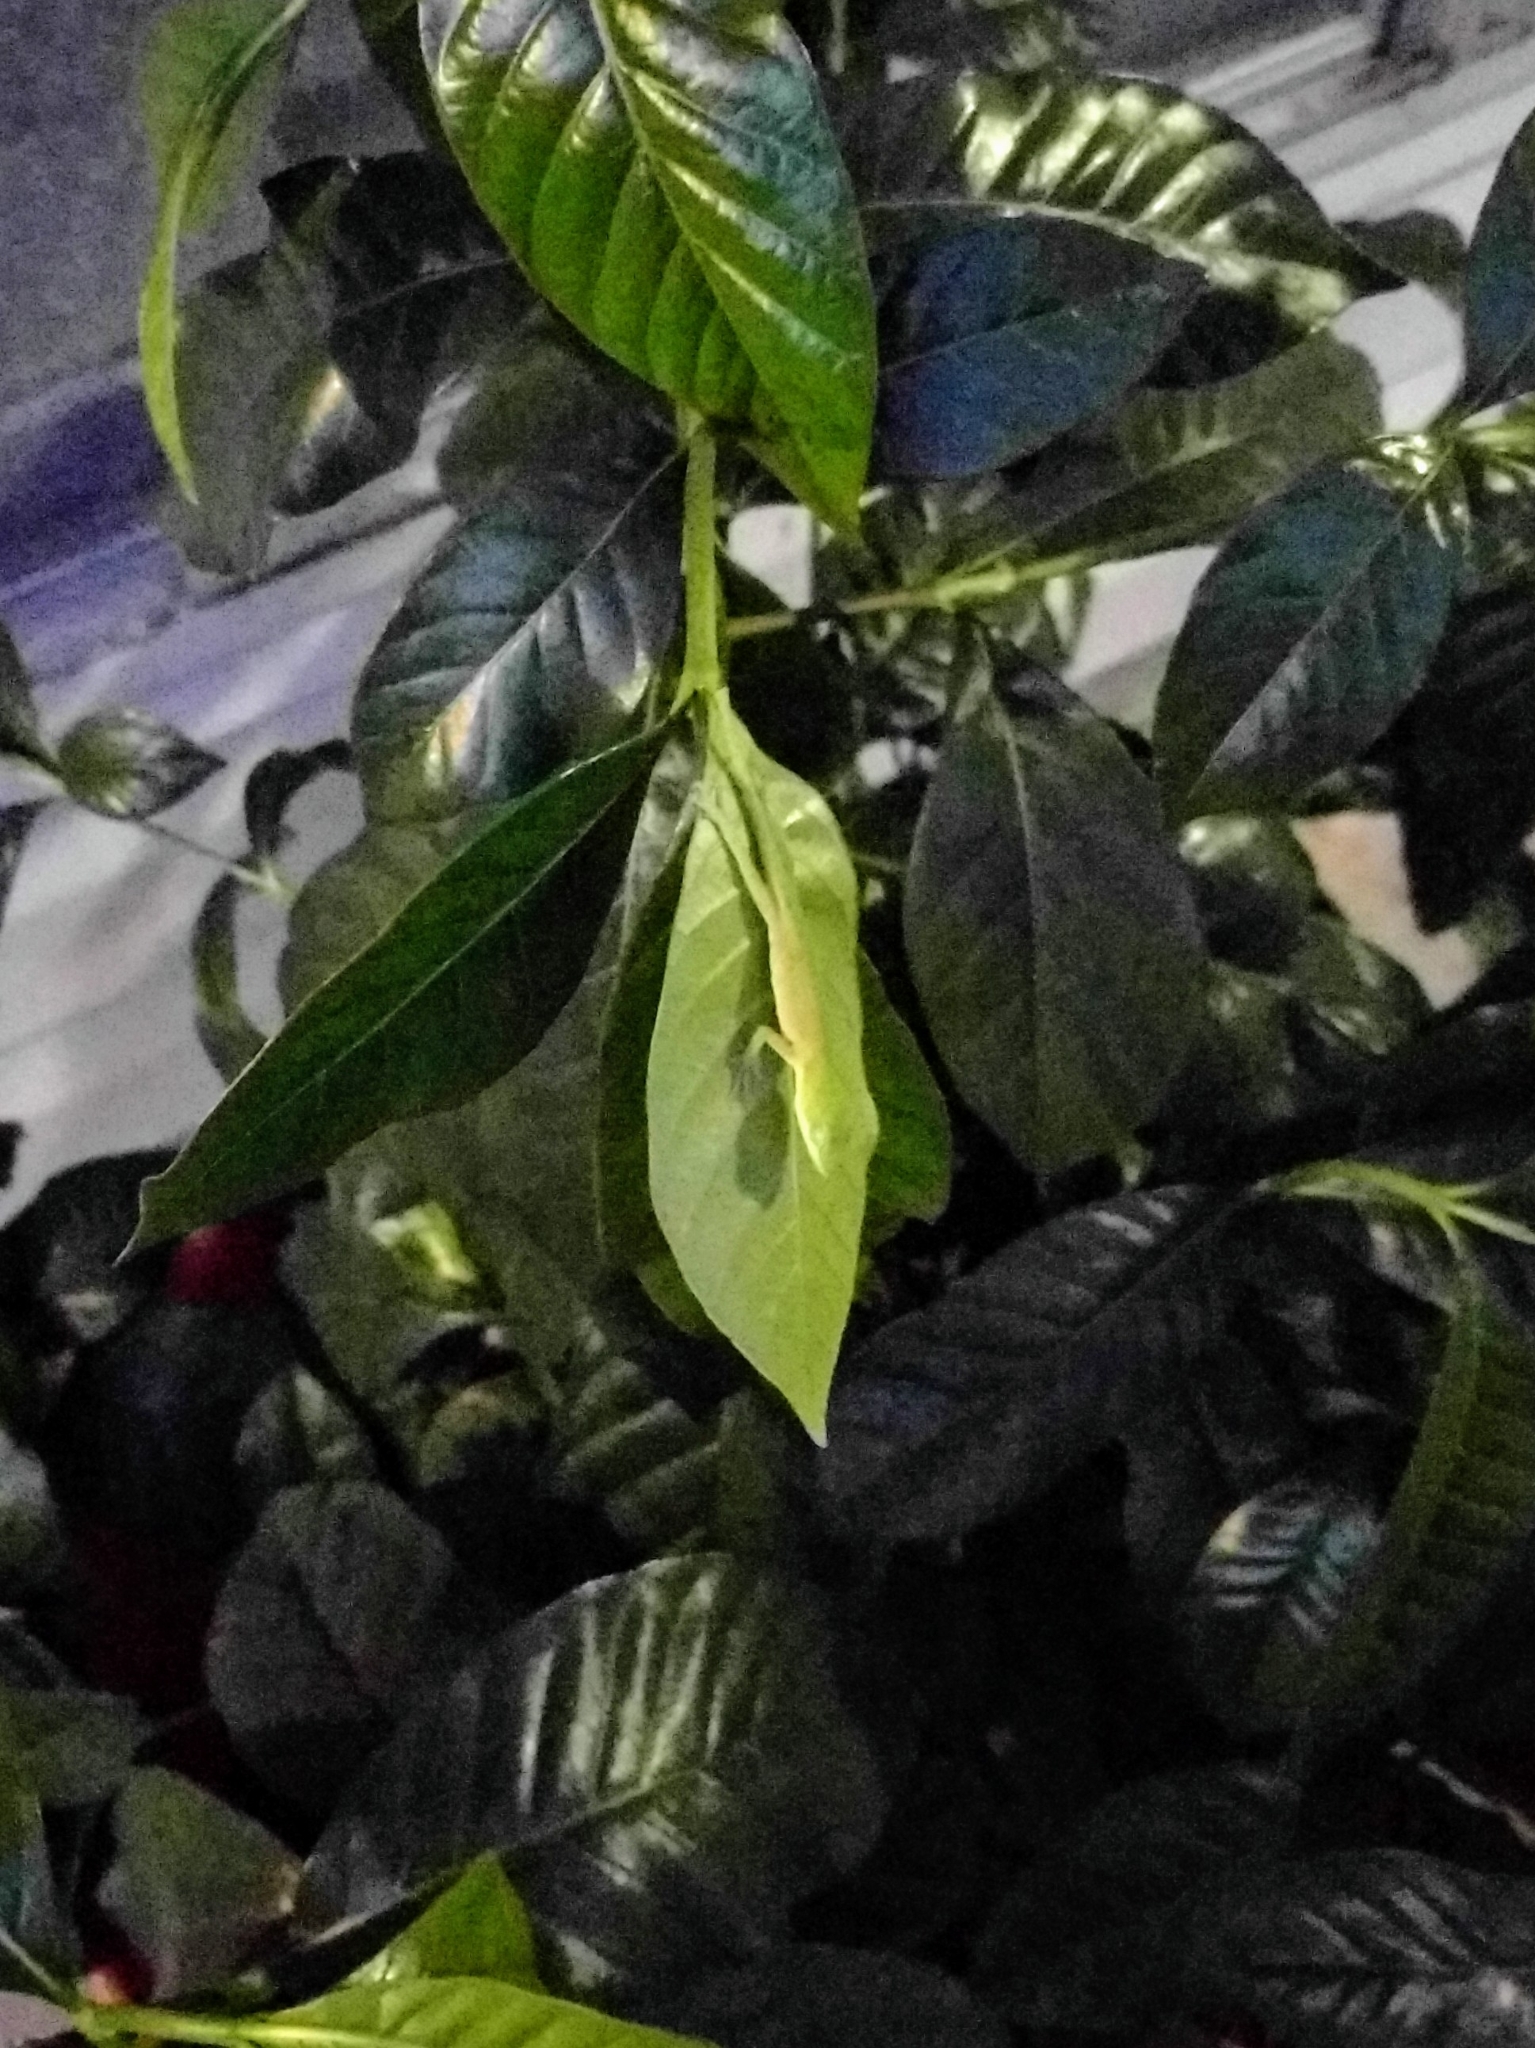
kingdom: Animalia
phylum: Chordata
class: Squamata
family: Dactyloidae
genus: Anolis
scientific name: Anolis carolinensis
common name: Green anole
